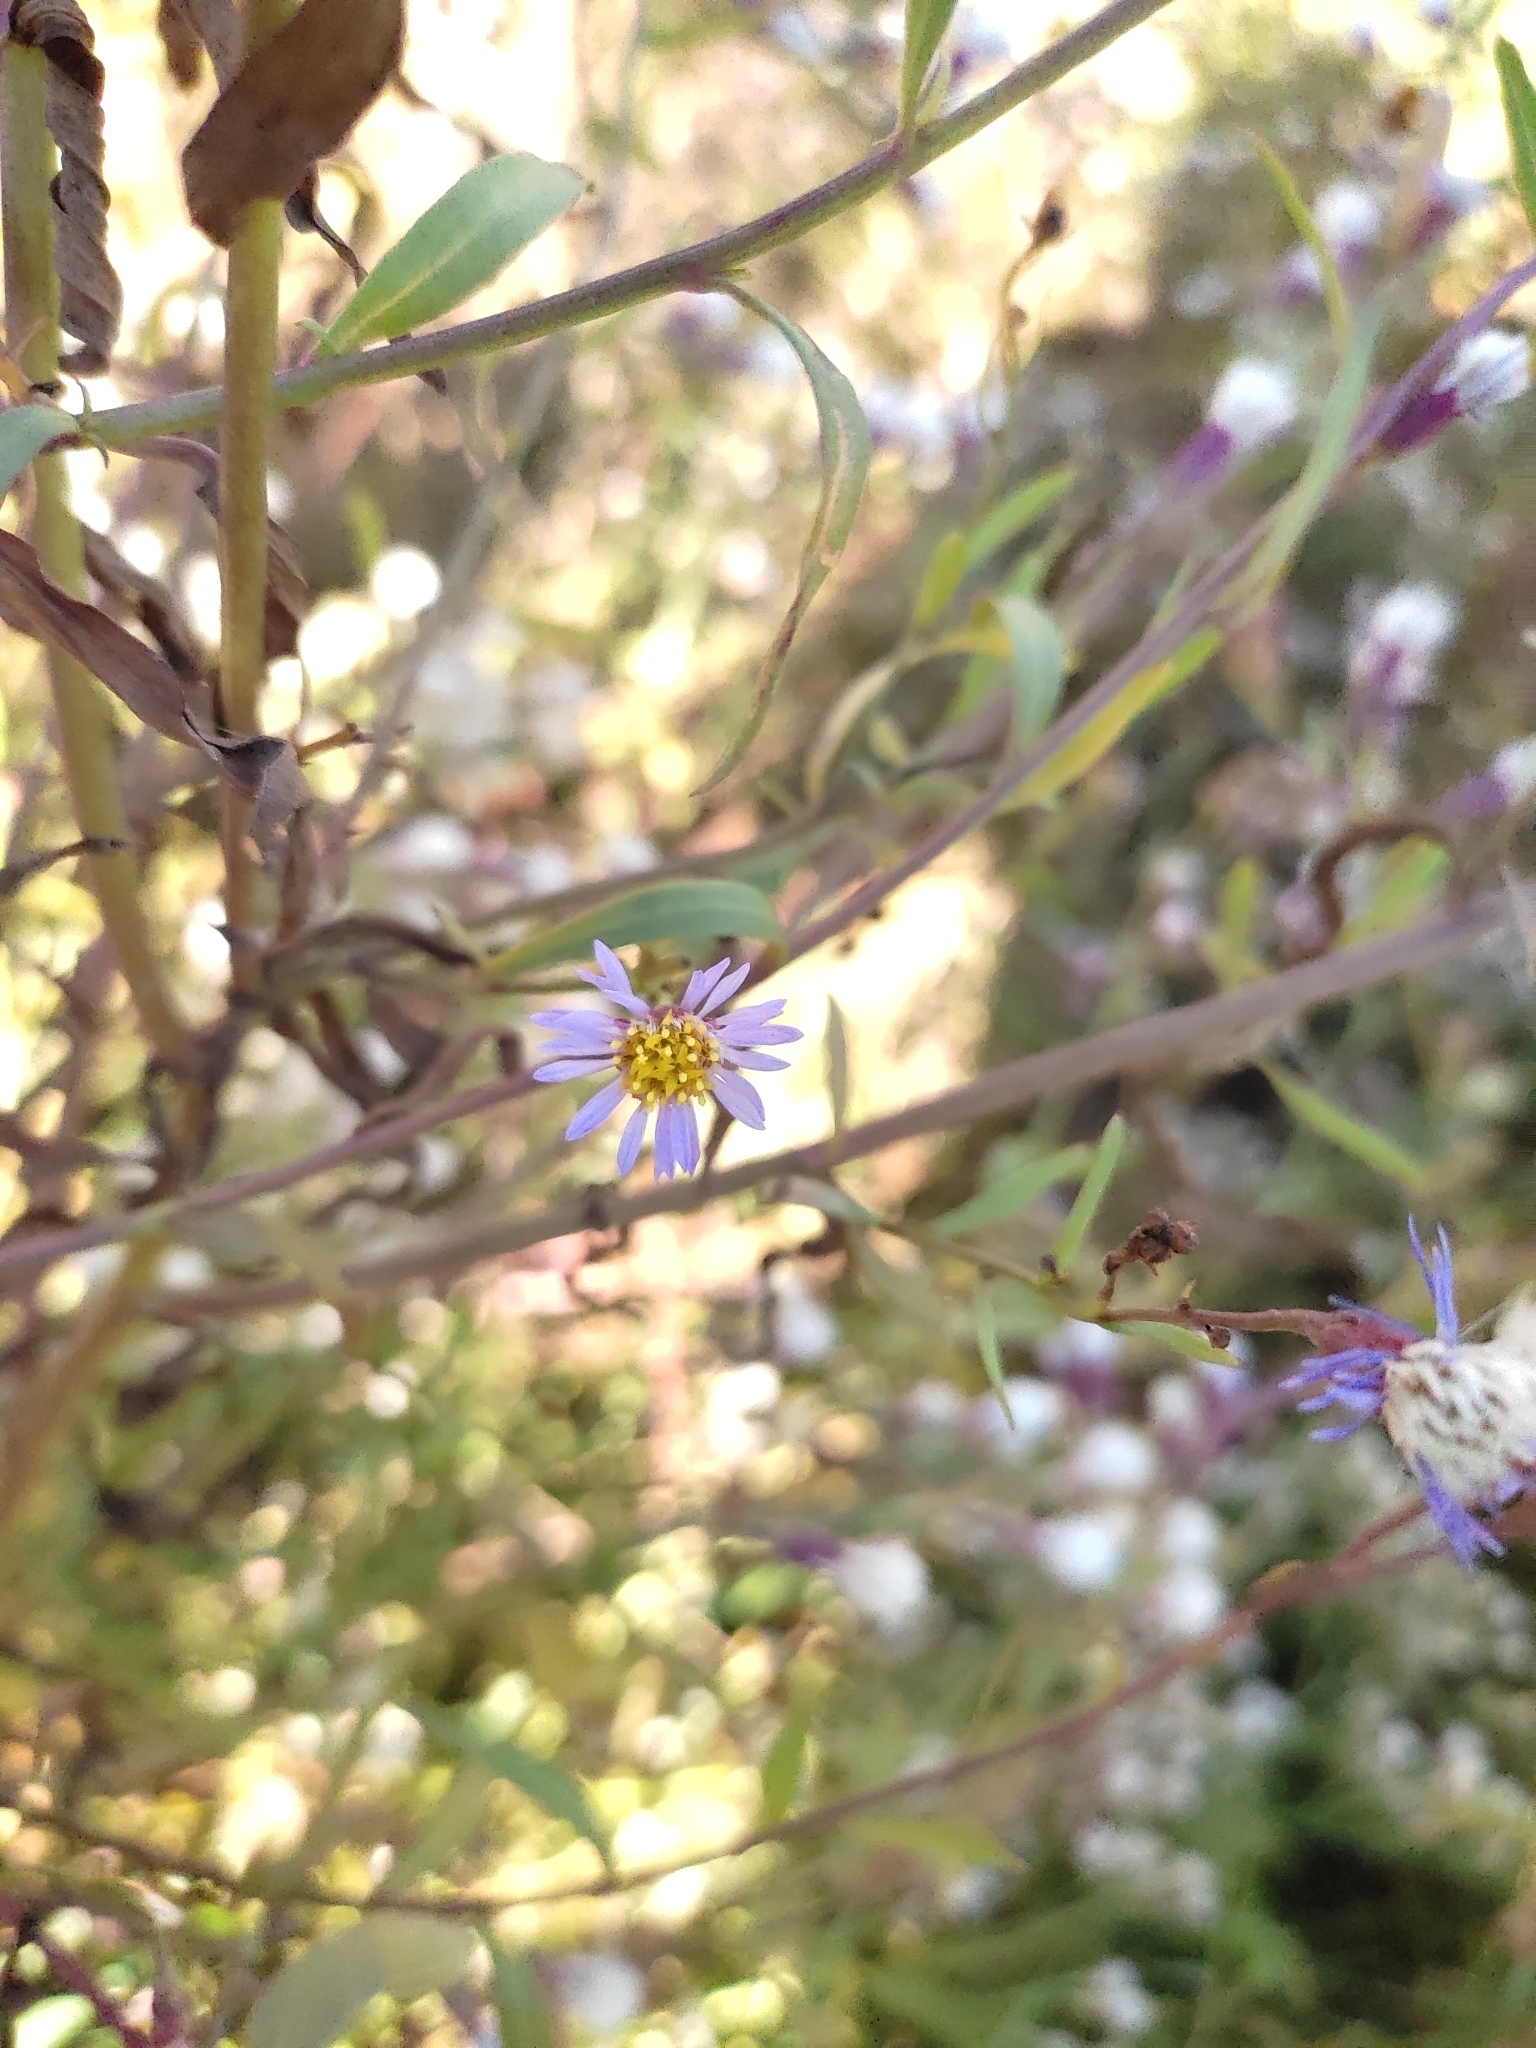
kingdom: Plantae
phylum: Tracheophyta
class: Magnoliopsida
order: Asterales
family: Asteraceae
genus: Tripolium
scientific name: Tripolium pannonicum
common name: Sea aster
